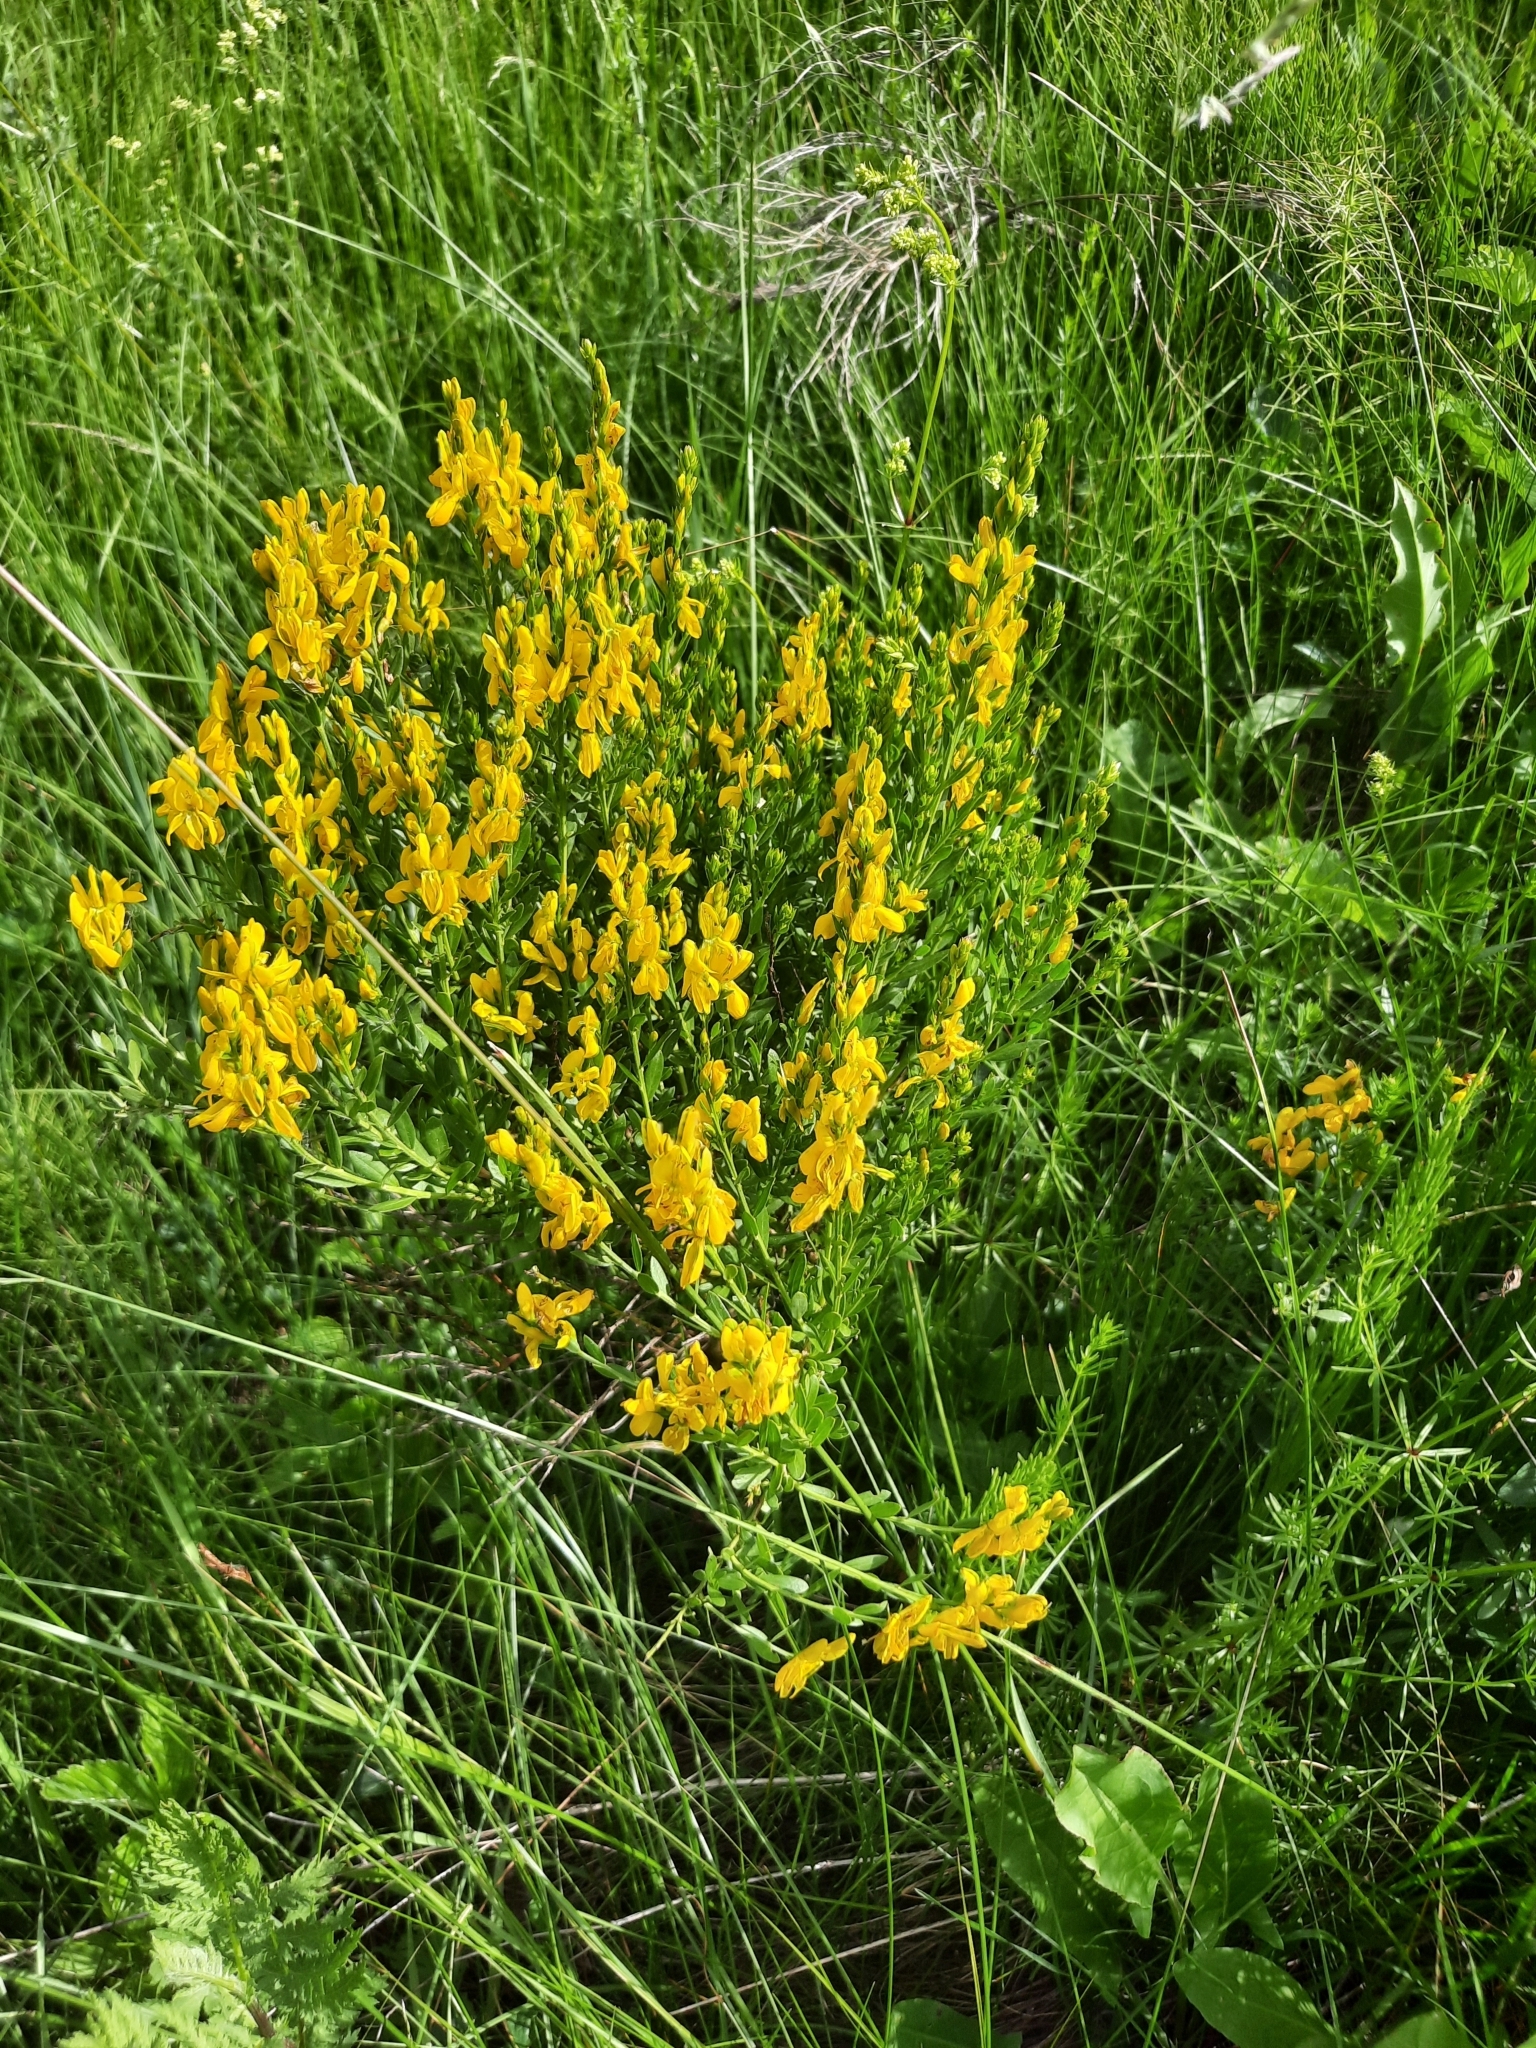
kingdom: Plantae
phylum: Tracheophyta
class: Magnoliopsida
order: Fabales
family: Fabaceae
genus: Genista
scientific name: Genista tinctoria
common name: Dyer's greenweed
